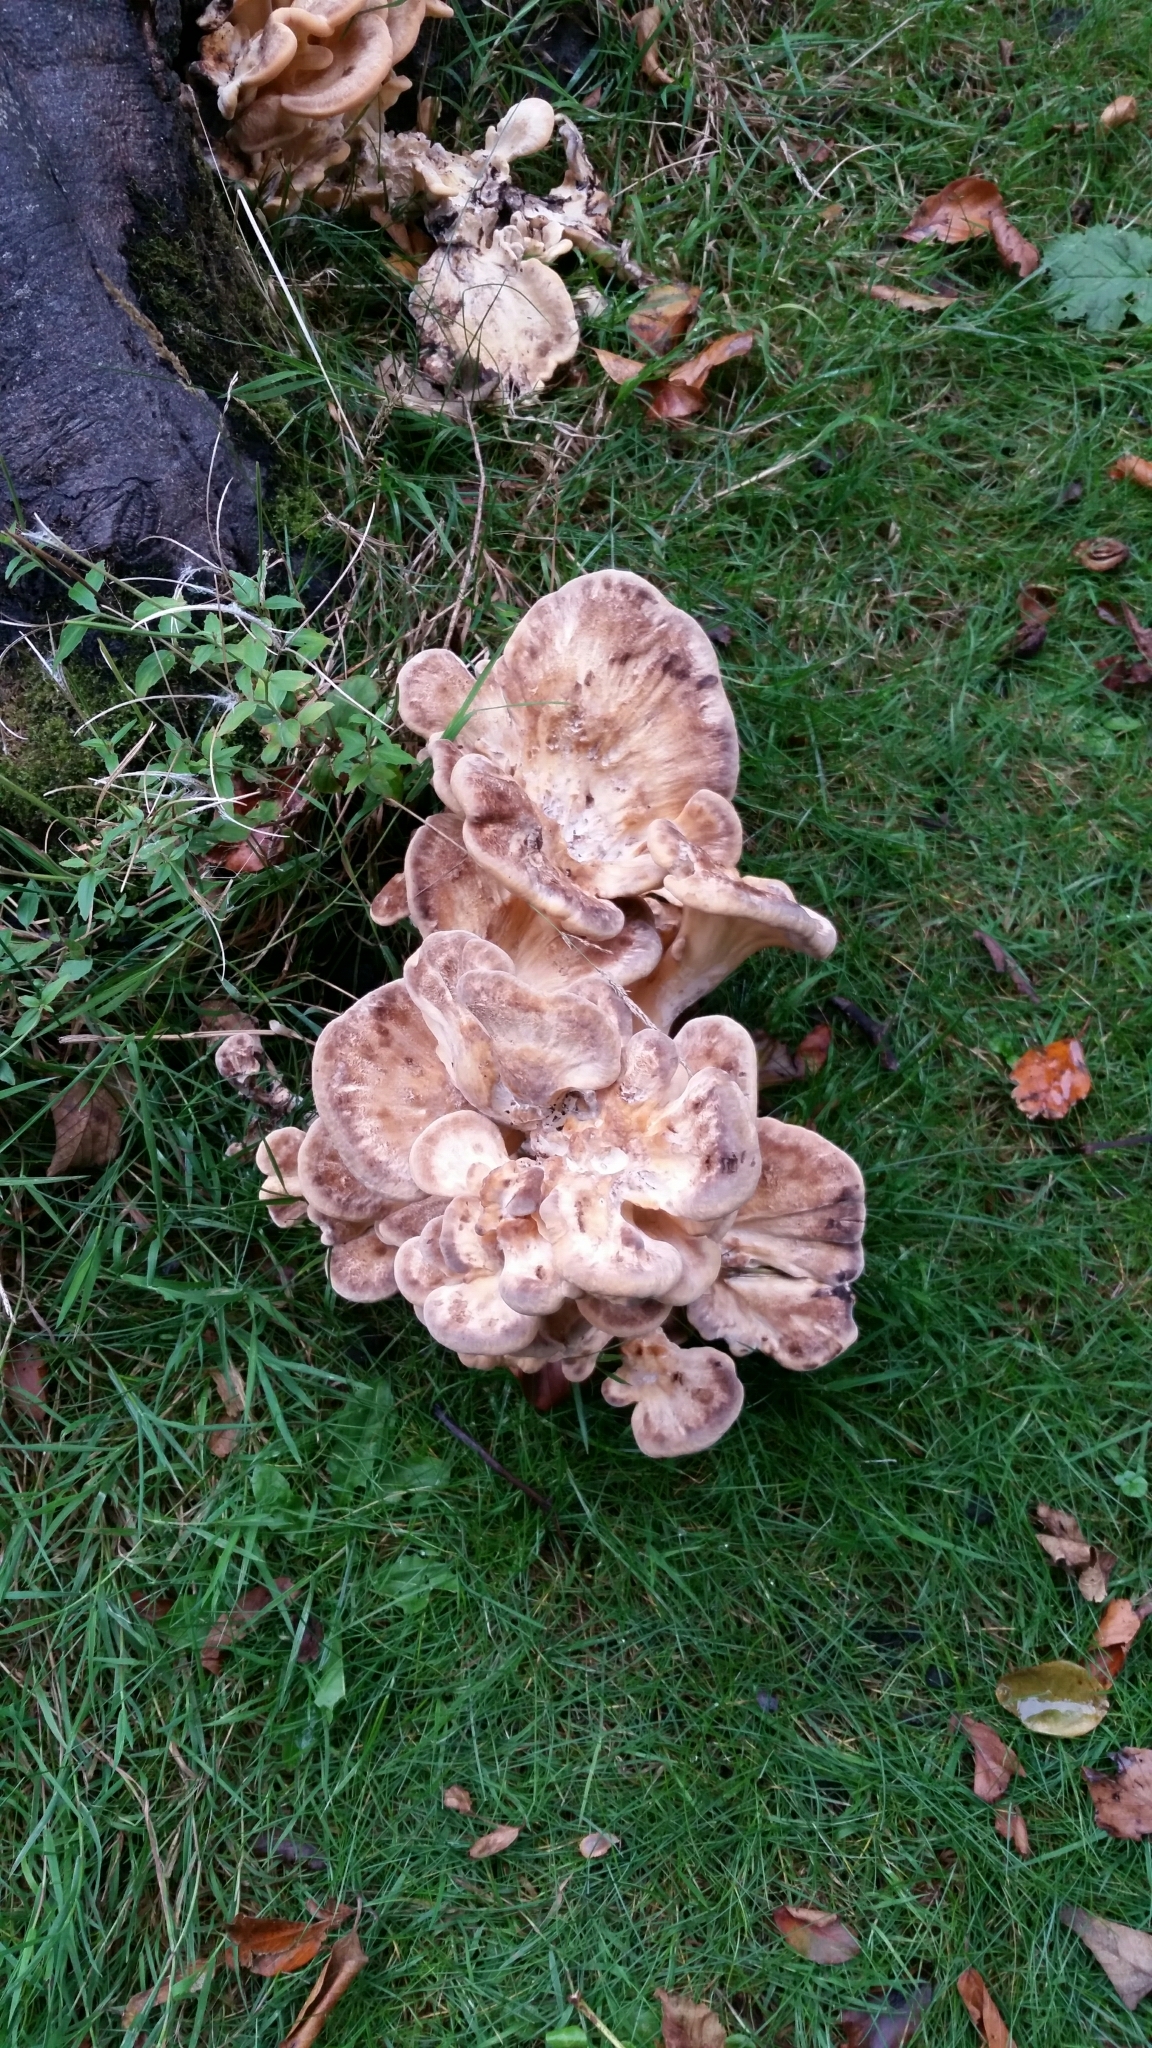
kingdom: Fungi
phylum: Basidiomycota
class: Agaricomycetes
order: Polyporales
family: Meripilaceae
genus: Meripilus
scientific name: Meripilus giganteus
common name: Giant polypore
